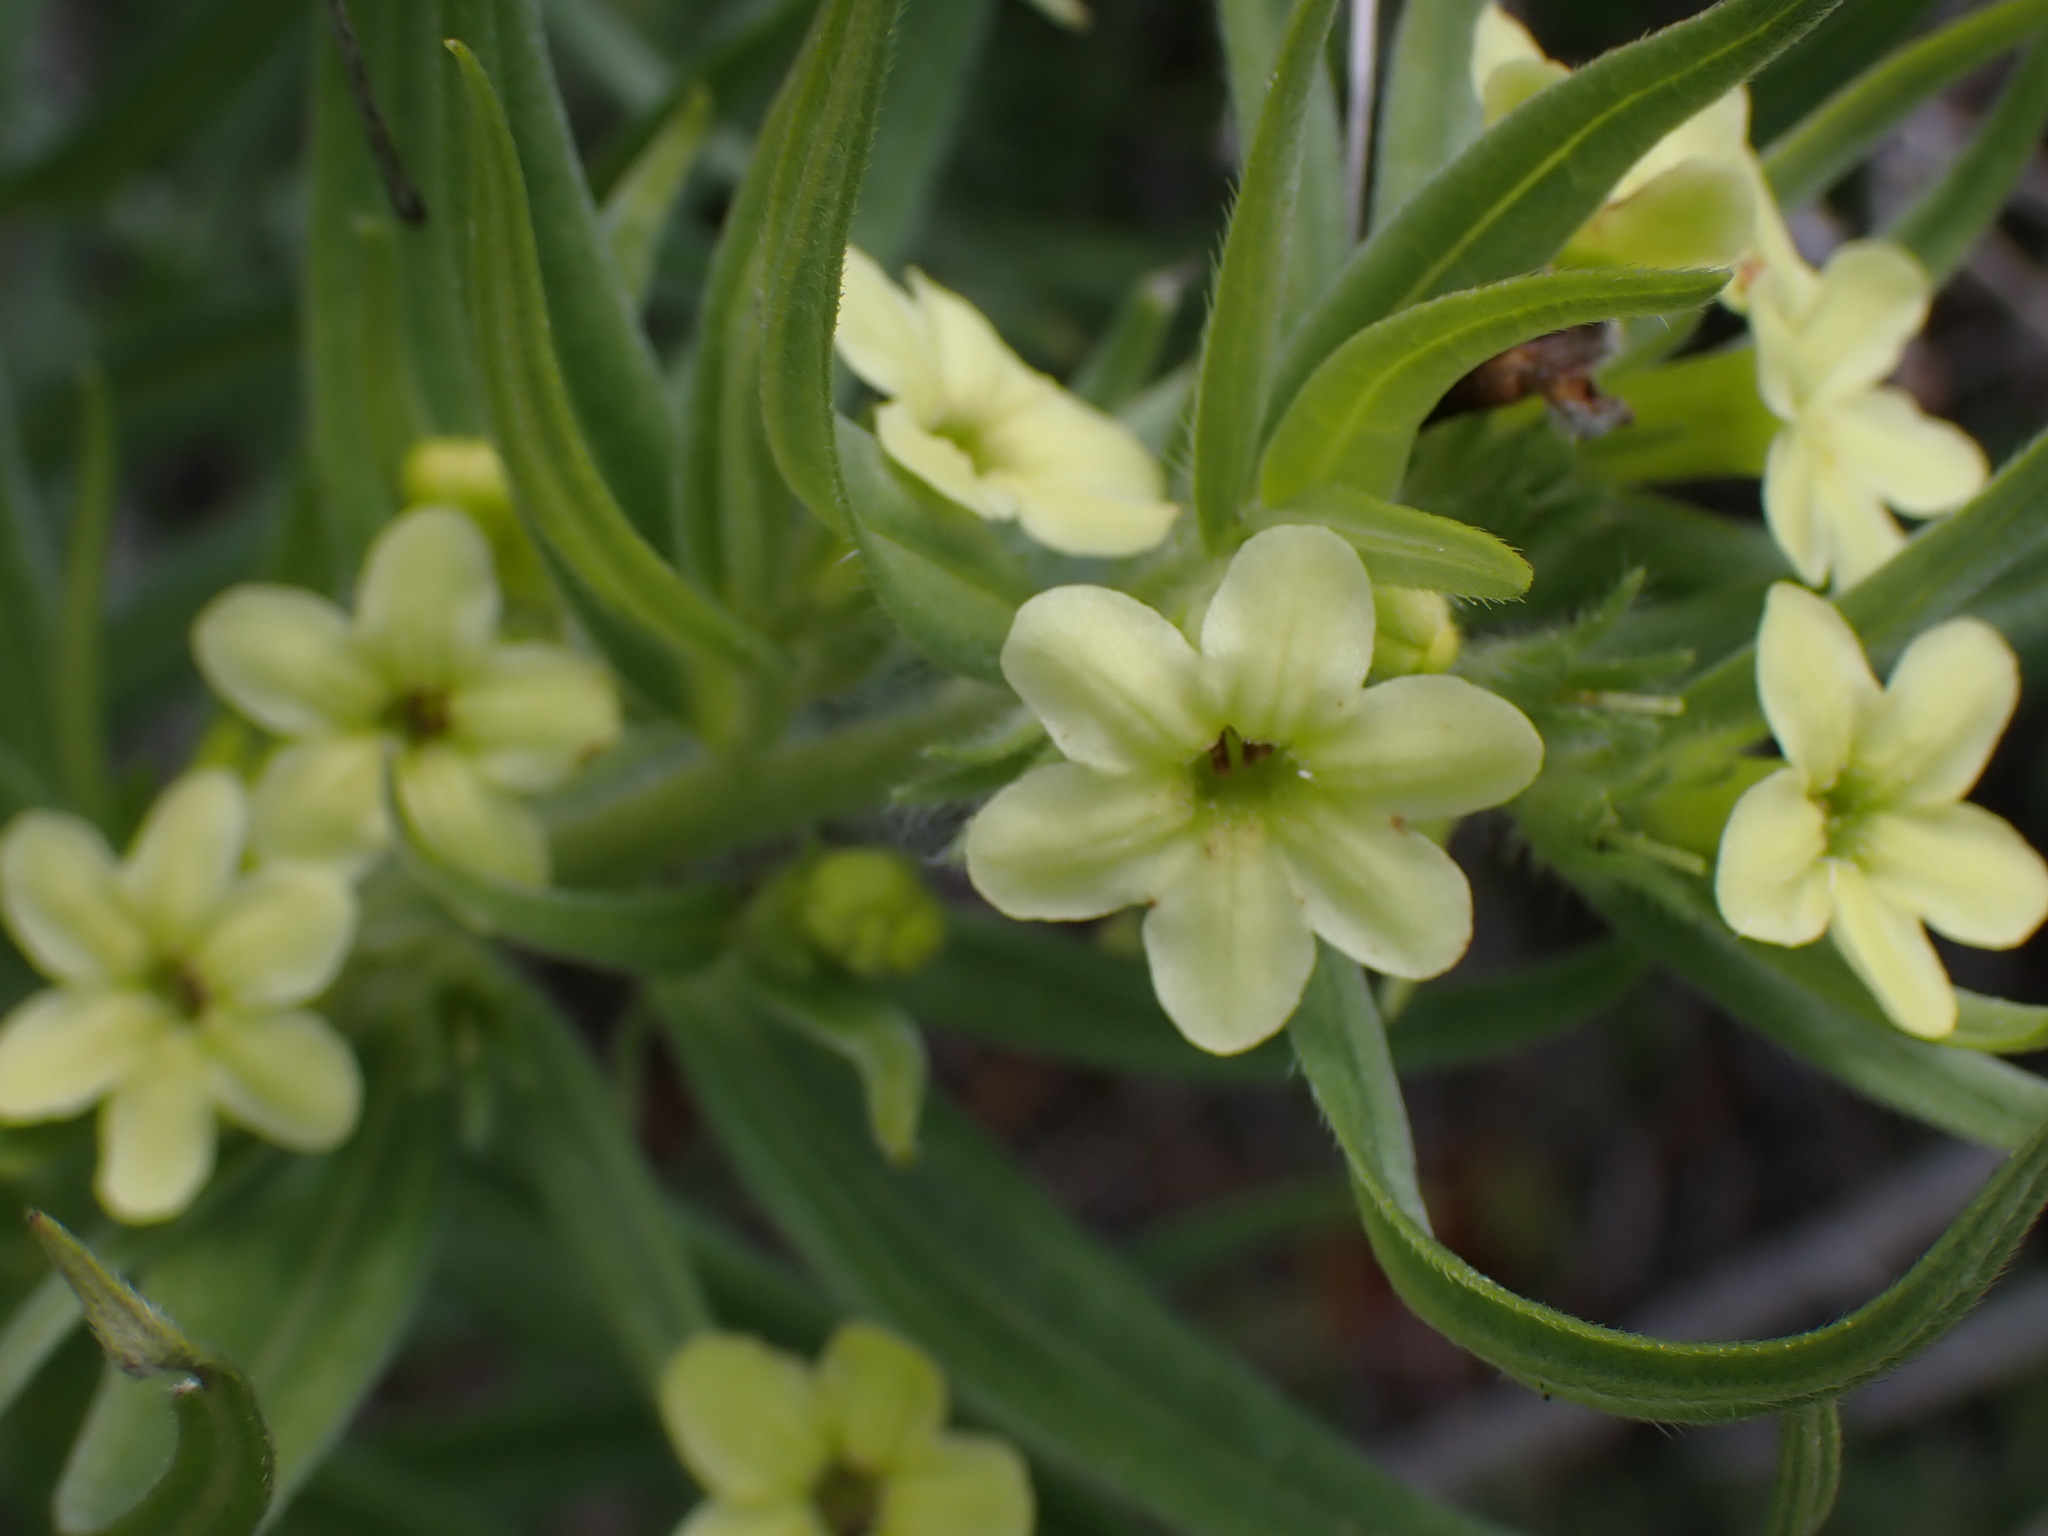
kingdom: Plantae
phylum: Tracheophyta
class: Magnoliopsida
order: Boraginales
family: Boraginaceae
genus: Lithospermum
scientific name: Lithospermum ruderale
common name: Western gromwell
